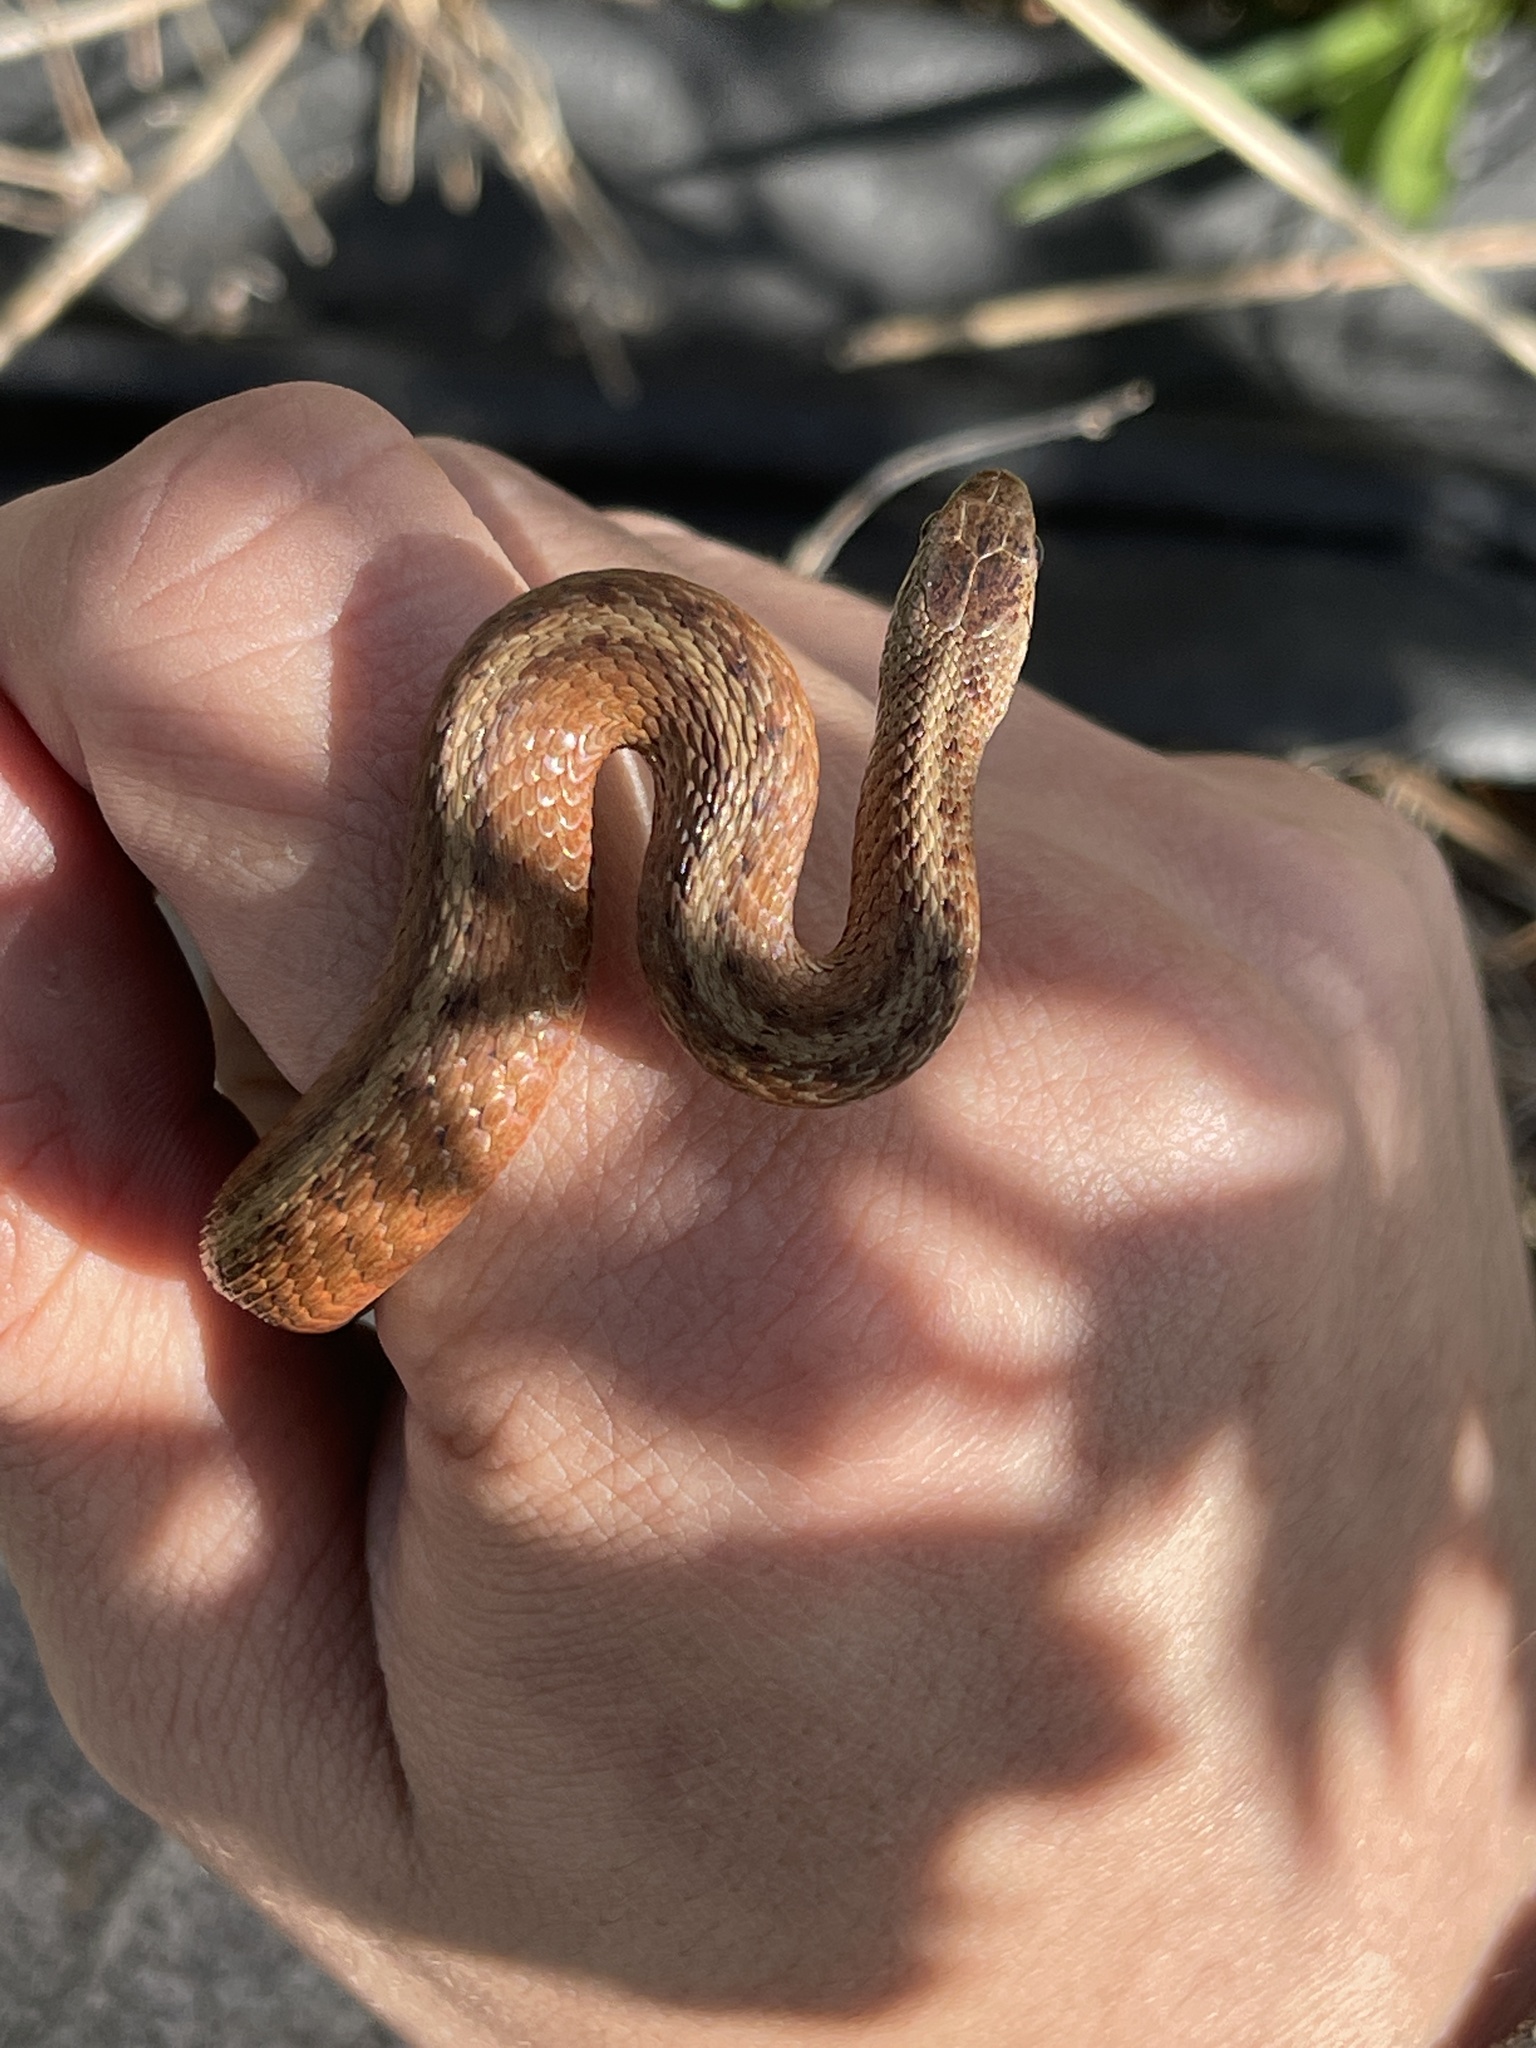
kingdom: Animalia
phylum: Chordata
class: Squamata
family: Colubridae
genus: Storeria
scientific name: Storeria dekayi
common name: (dekay’s) brown snake
